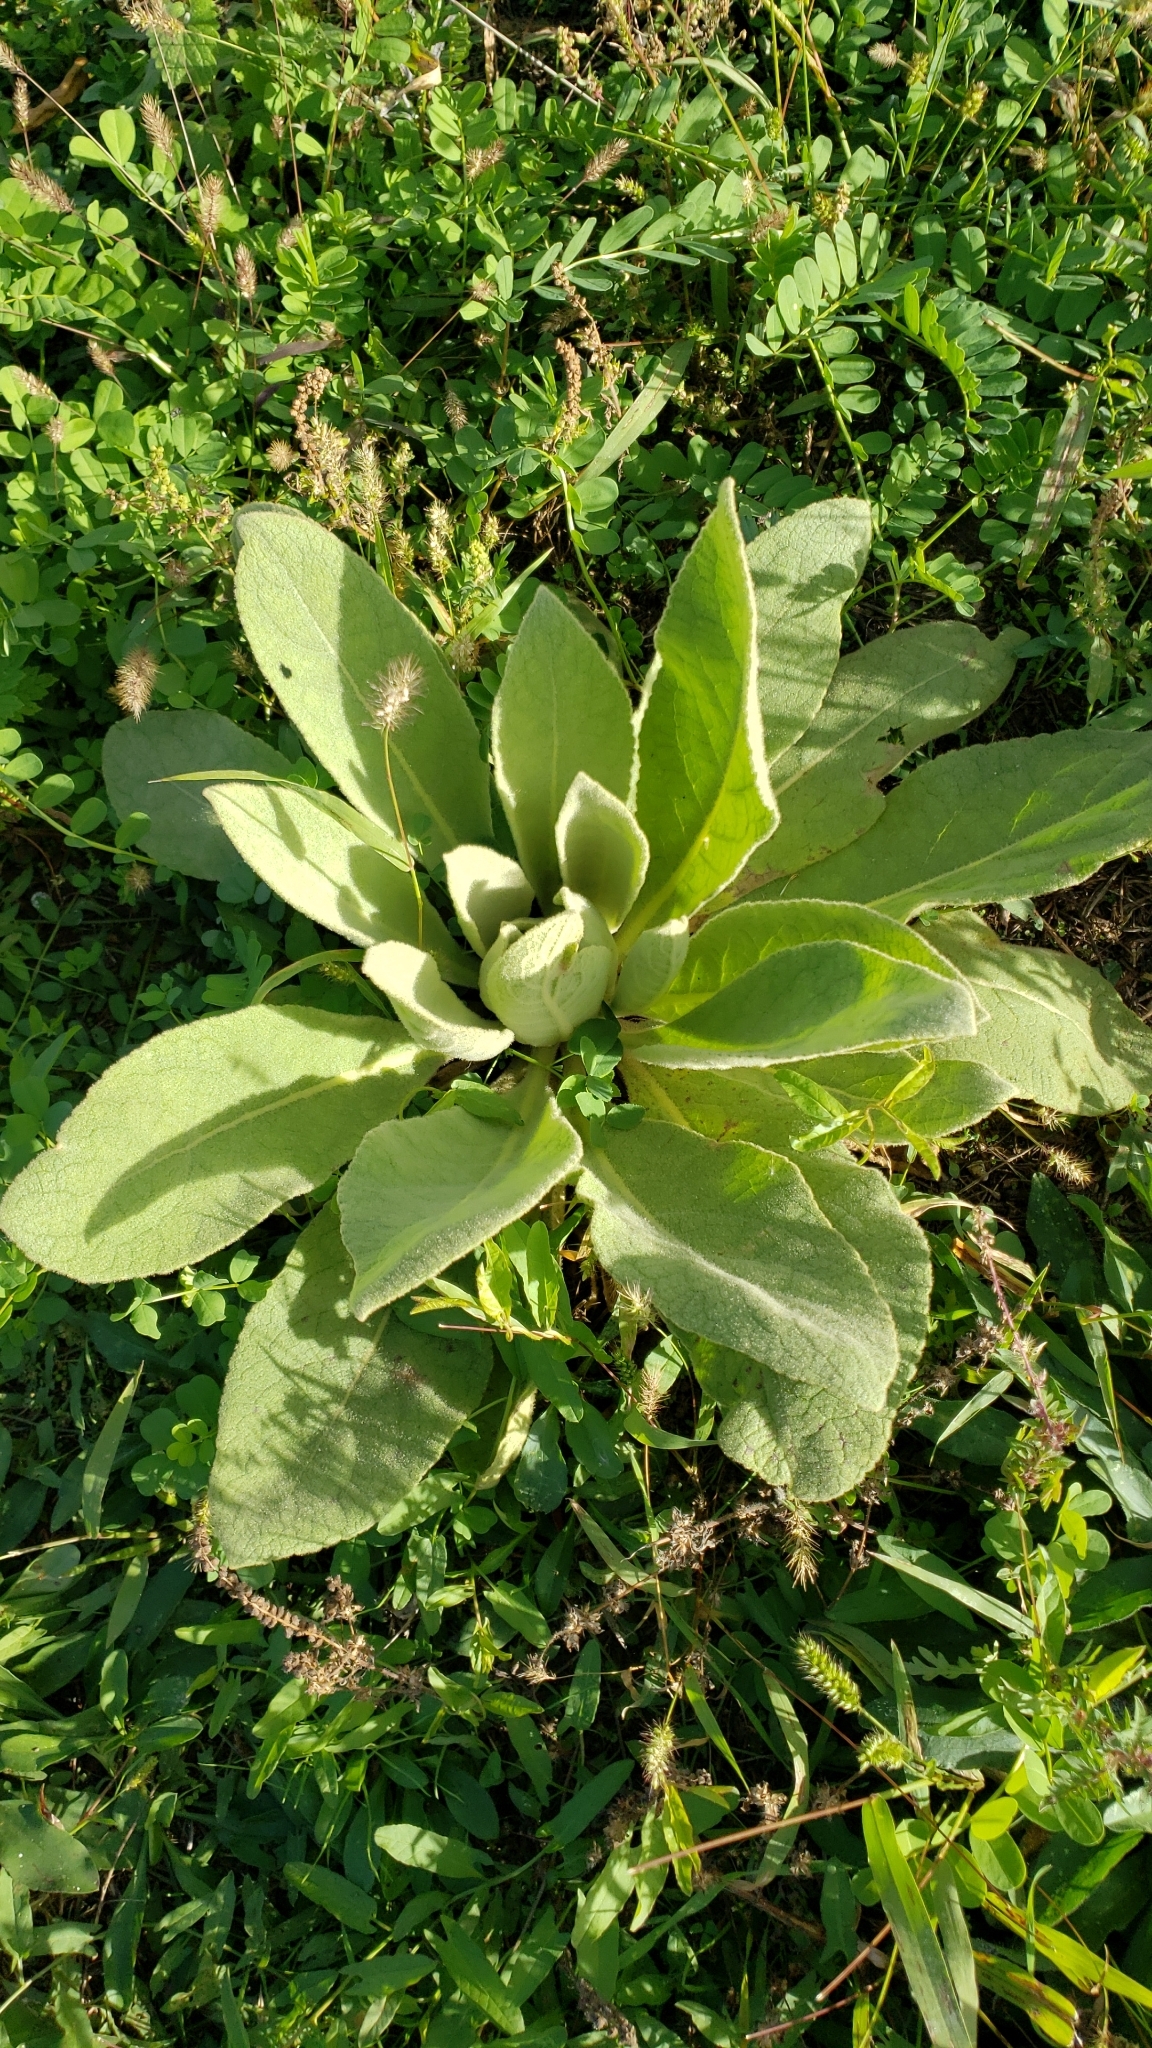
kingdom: Plantae
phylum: Tracheophyta
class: Magnoliopsida
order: Lamiales
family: Scrophulariaceae
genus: Verbascum
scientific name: Verbascum thapsus
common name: Common mullein
